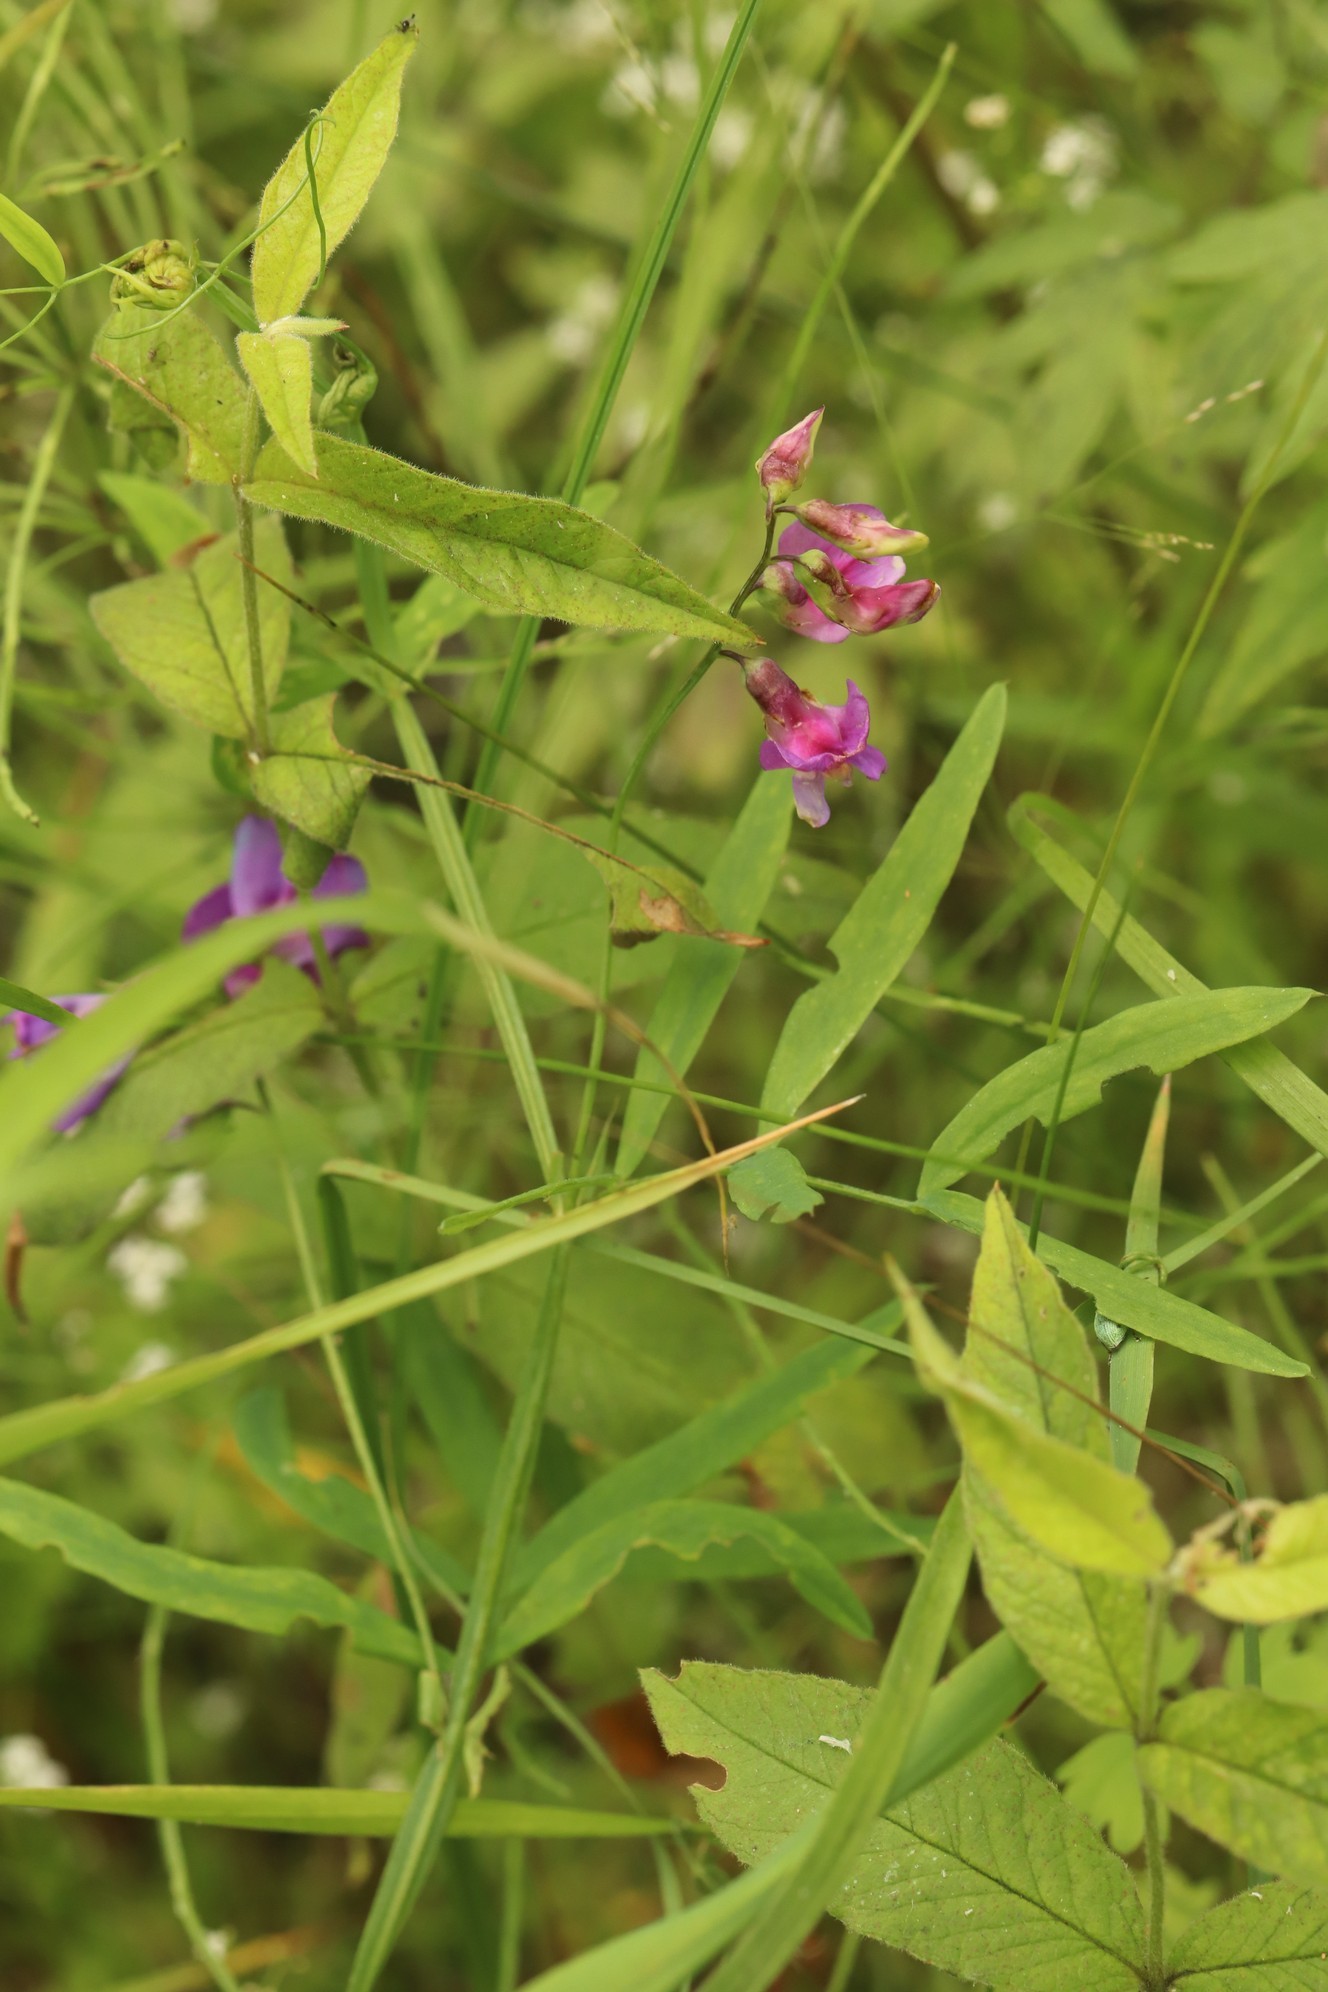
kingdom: Plantae
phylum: Tracheophyta
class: Magnoliopsida
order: Fabales
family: Fabaceae
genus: Lathyrus
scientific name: Lathyrus palustris
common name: Marsh pea
